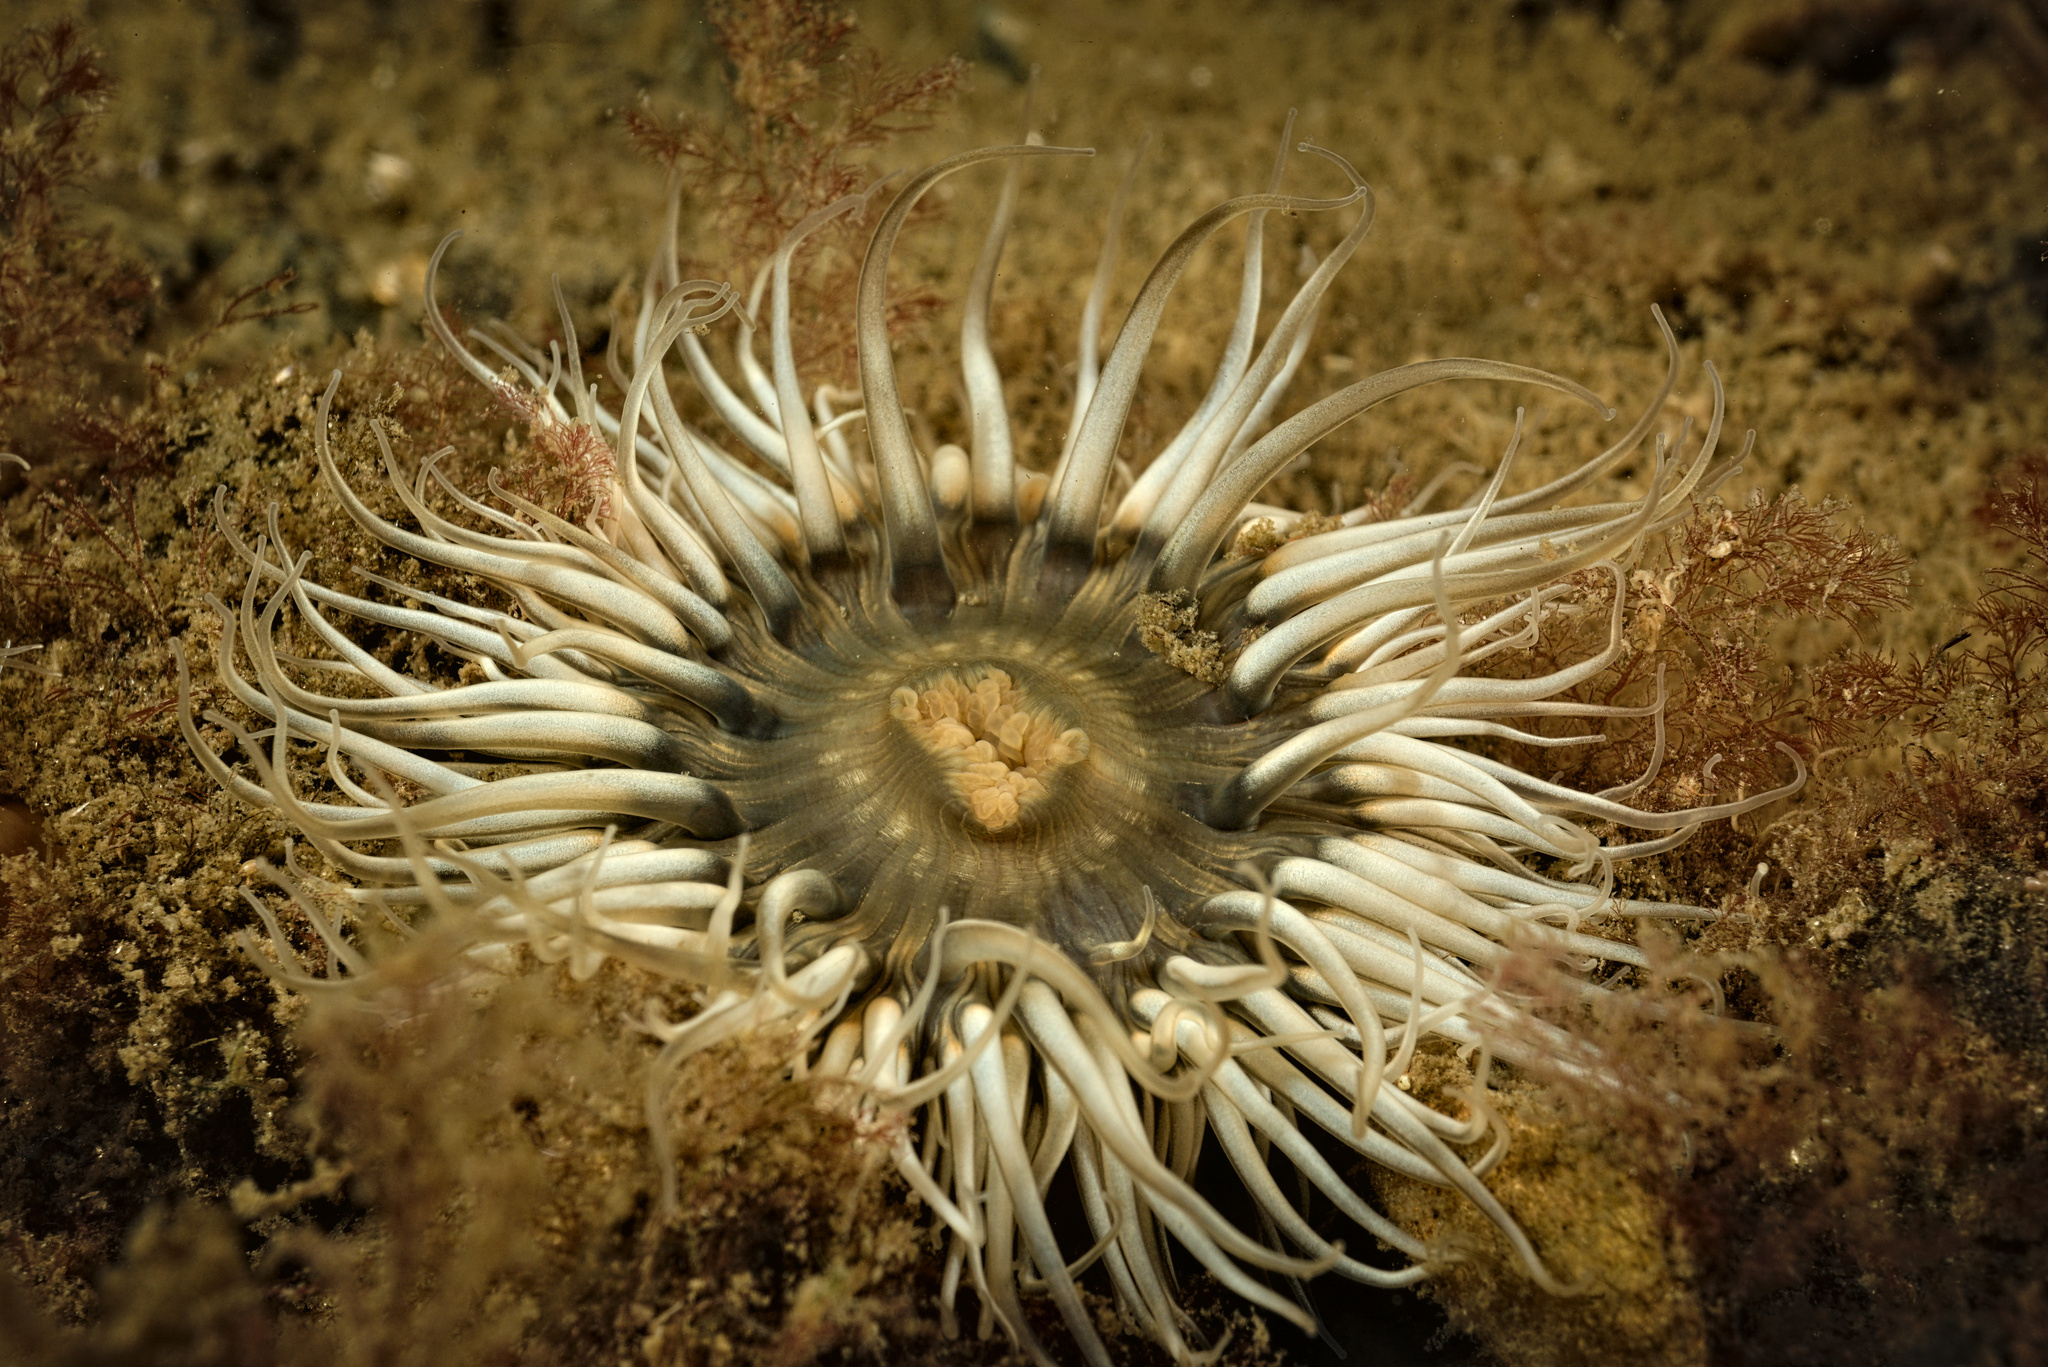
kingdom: Animalia
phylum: Cnidaria
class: Anthozoa
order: Actiniaria
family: Sagartiidae
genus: Cylista
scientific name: Cylista troglodytes
